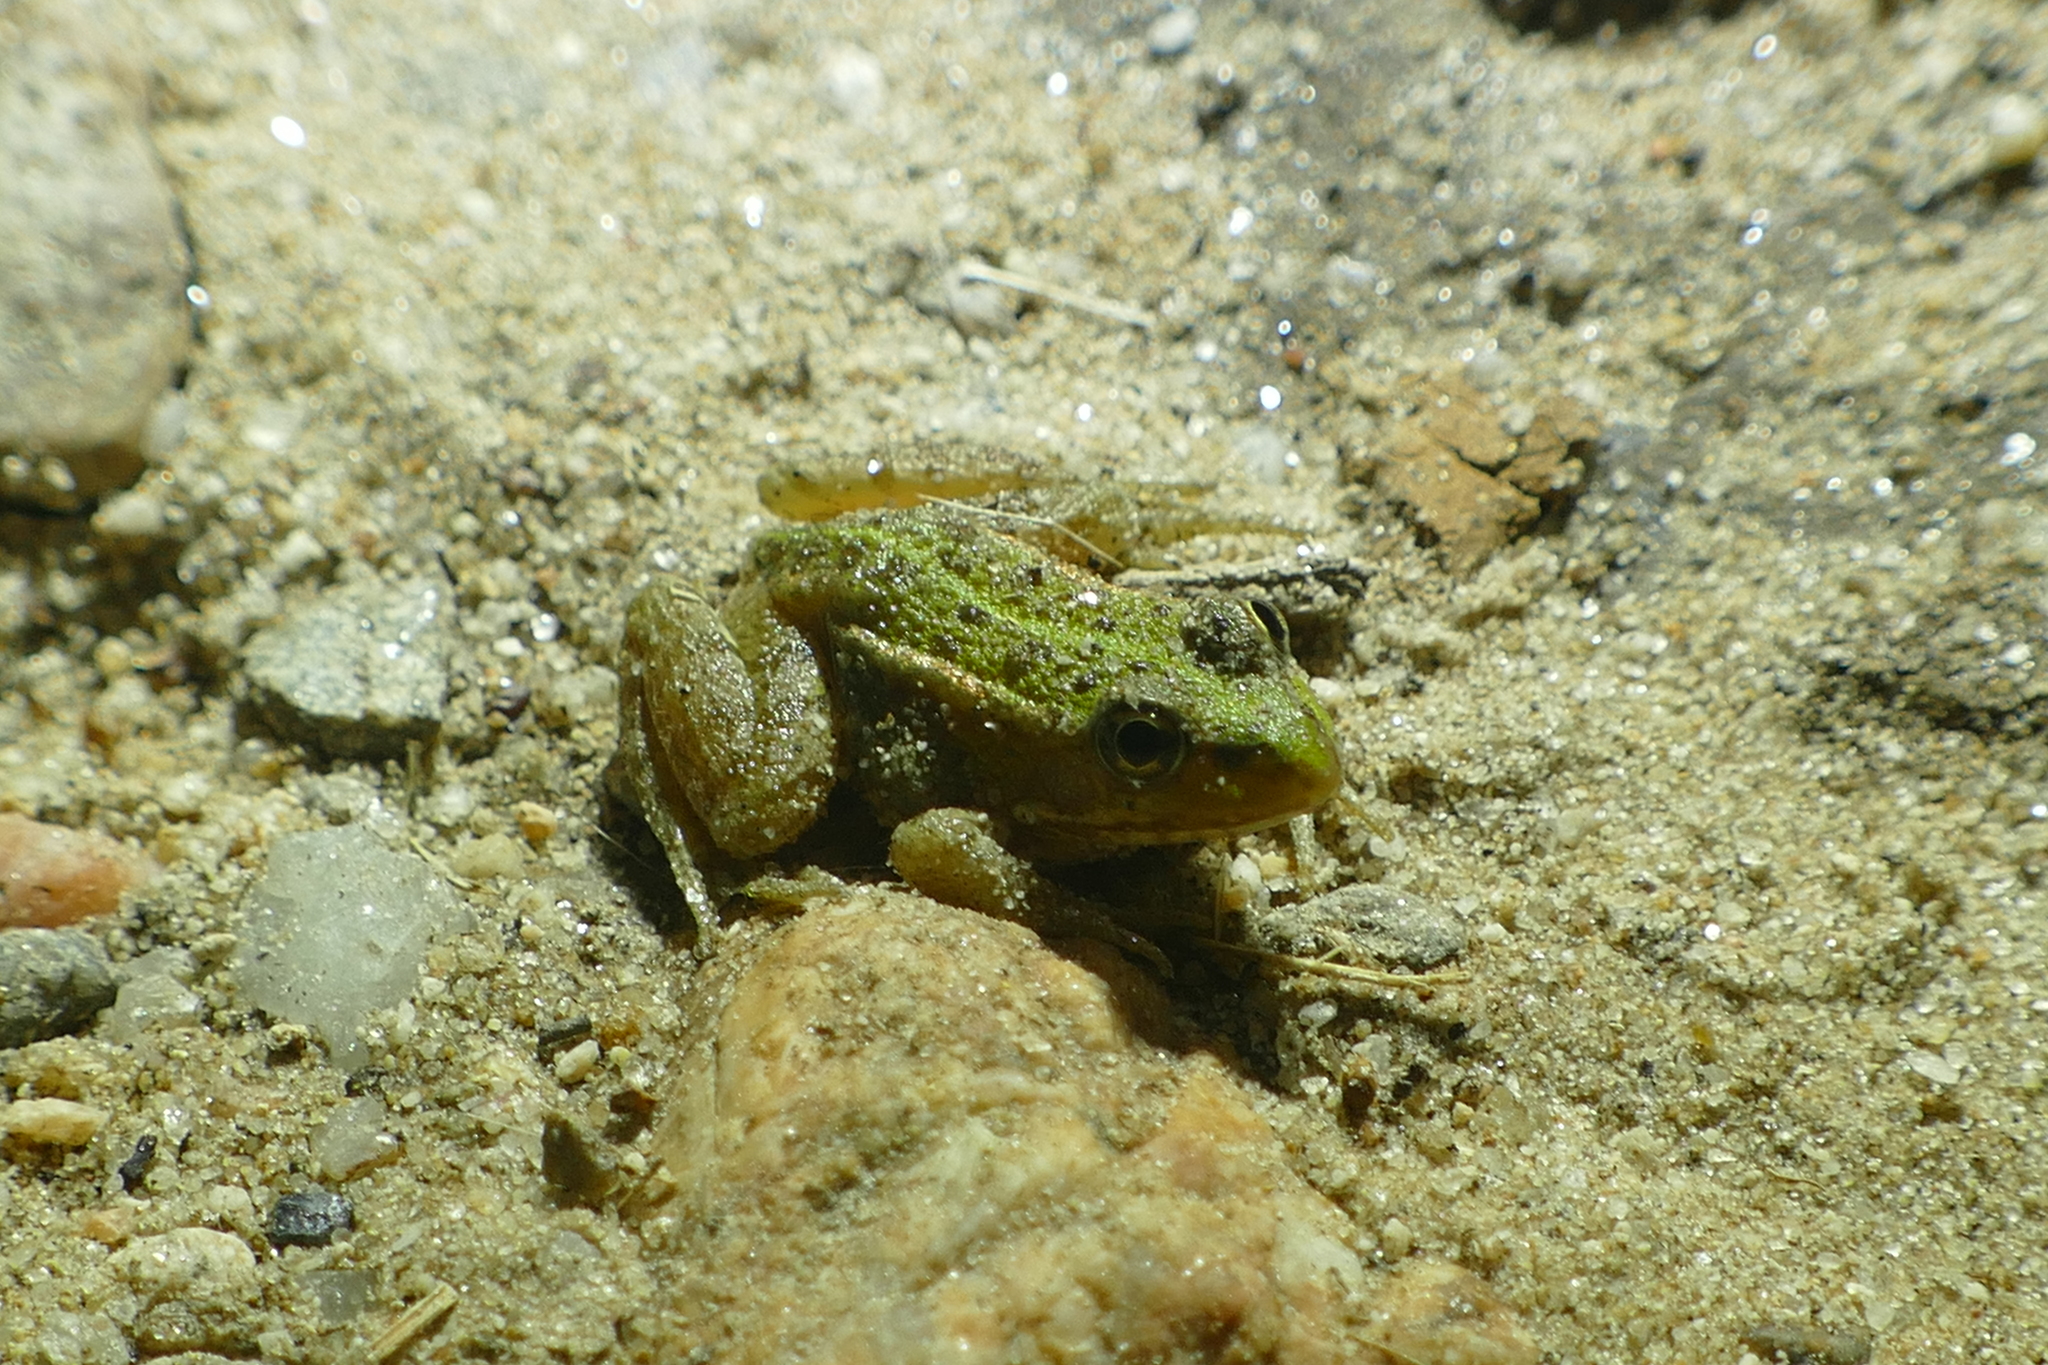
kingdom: Animalia
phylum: Chordata
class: Amphibia
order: Anura
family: Ranidae
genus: Pelophylax
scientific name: Pelophylax perezi
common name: Perez's frog
